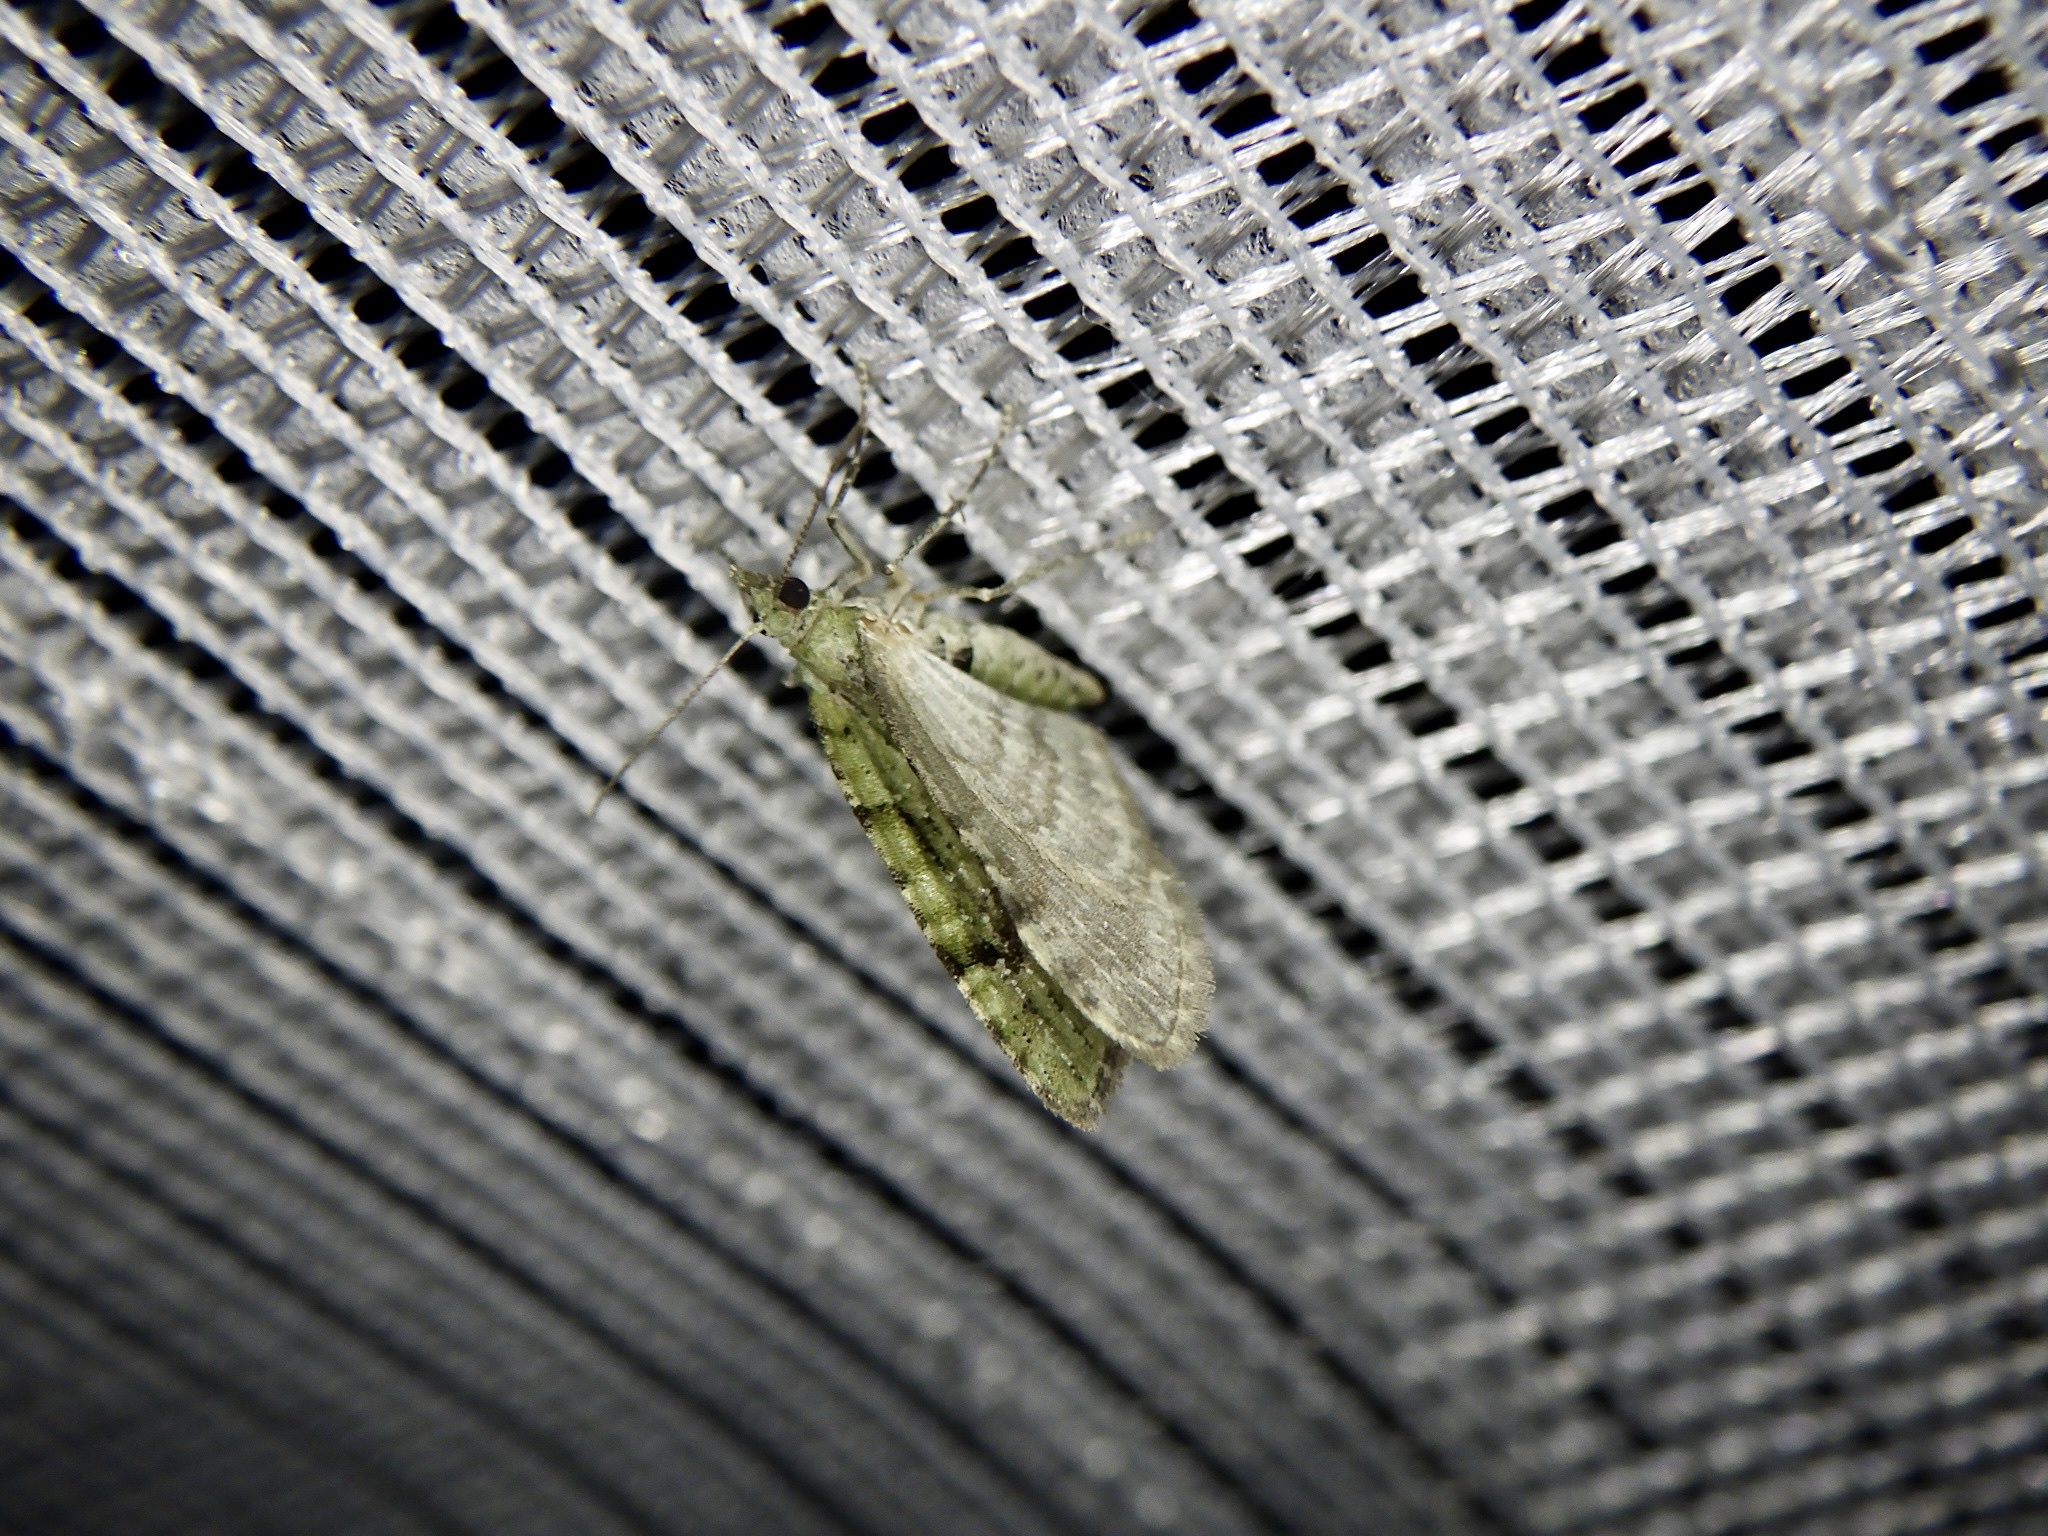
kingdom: Animalia
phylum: Arthropoda
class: Insecta
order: Lepidoptera
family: Geometridae
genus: Chloroclystis
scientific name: Chloroclystis v-ata
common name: V-pug
